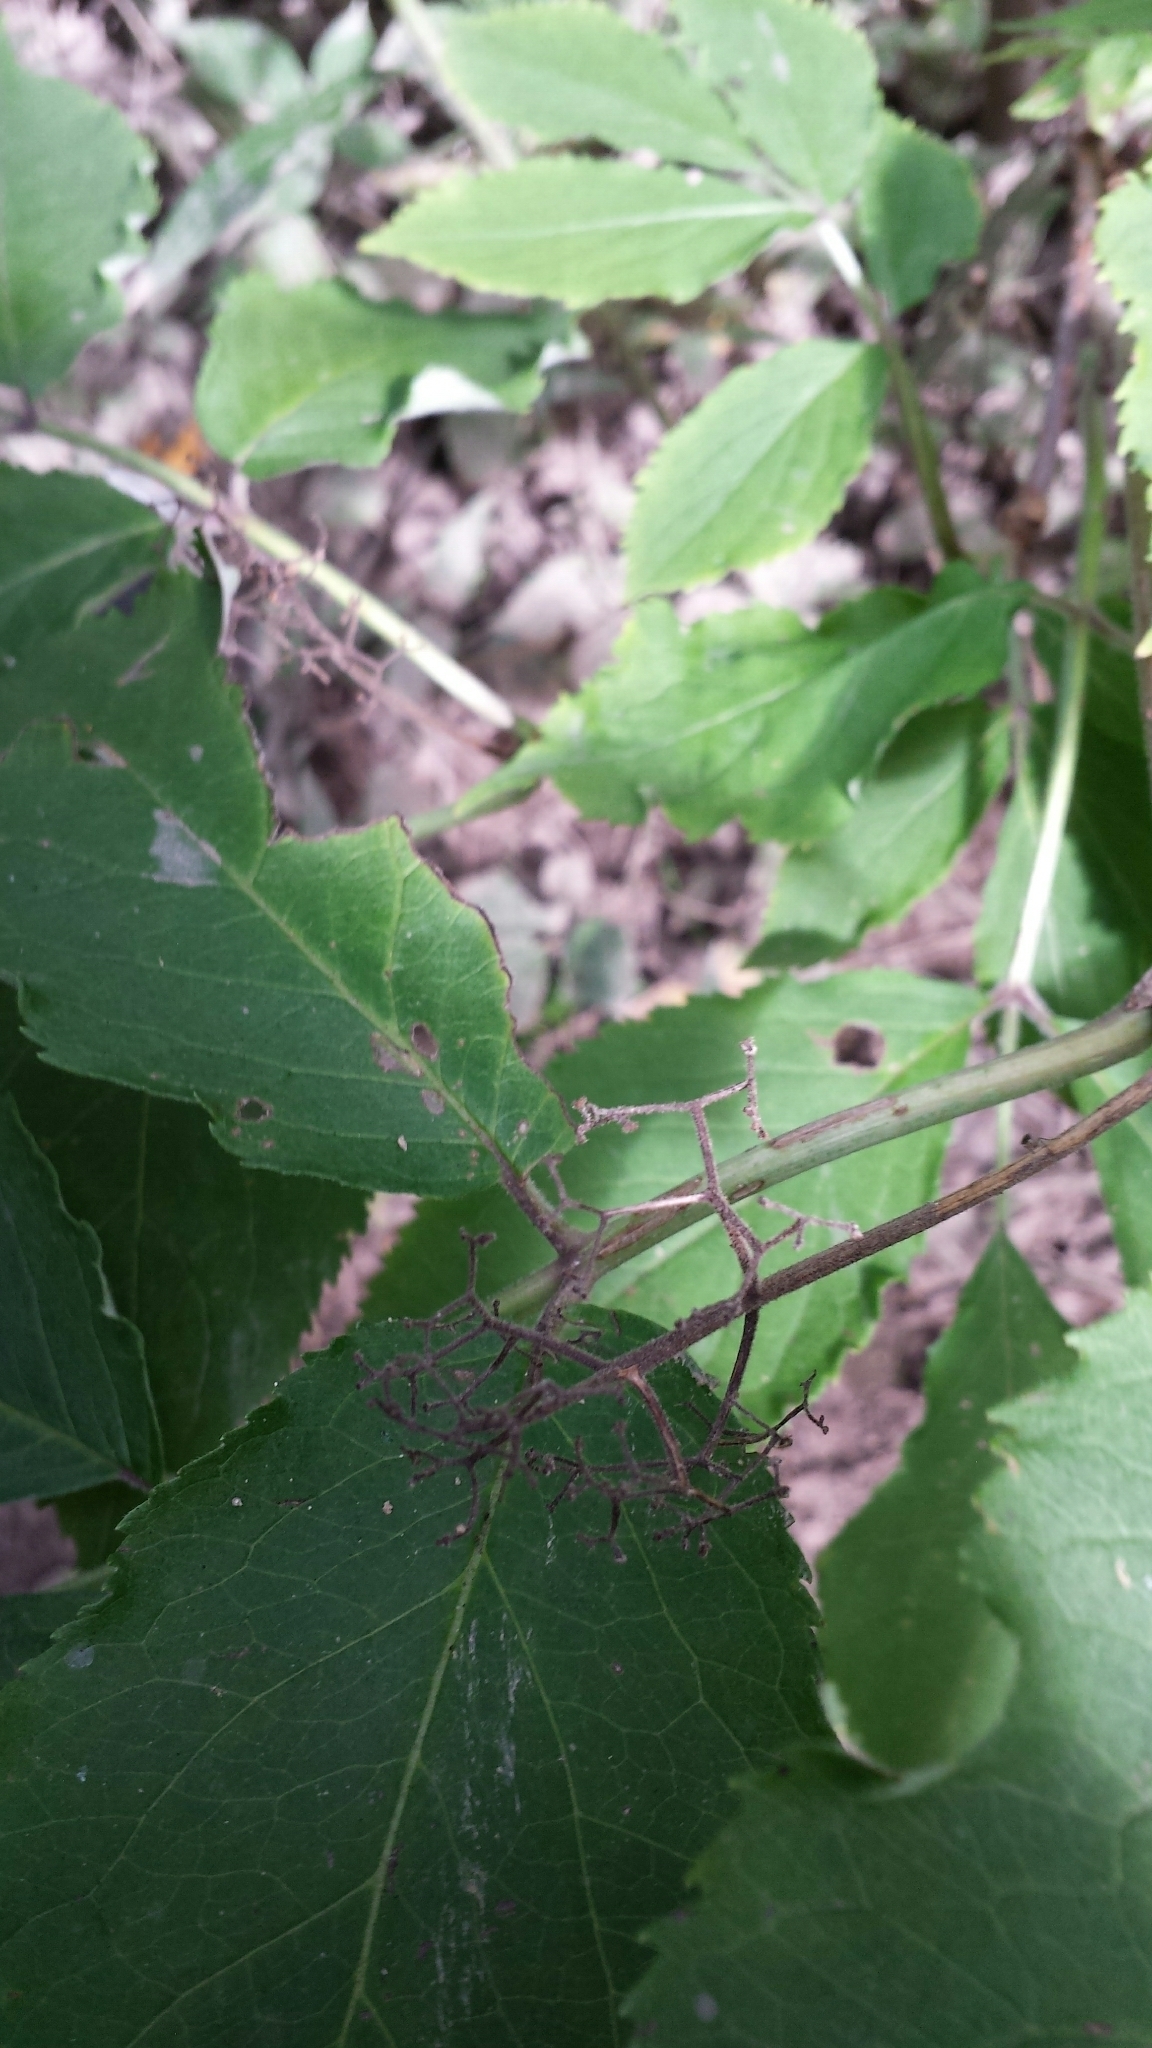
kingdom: Plantae
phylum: Tracheophyta
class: Magnoliopsida
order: Dipsacales
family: Viburnaceae
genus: Sambucus
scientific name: Sambucus racemosa
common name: Red-berried elder
